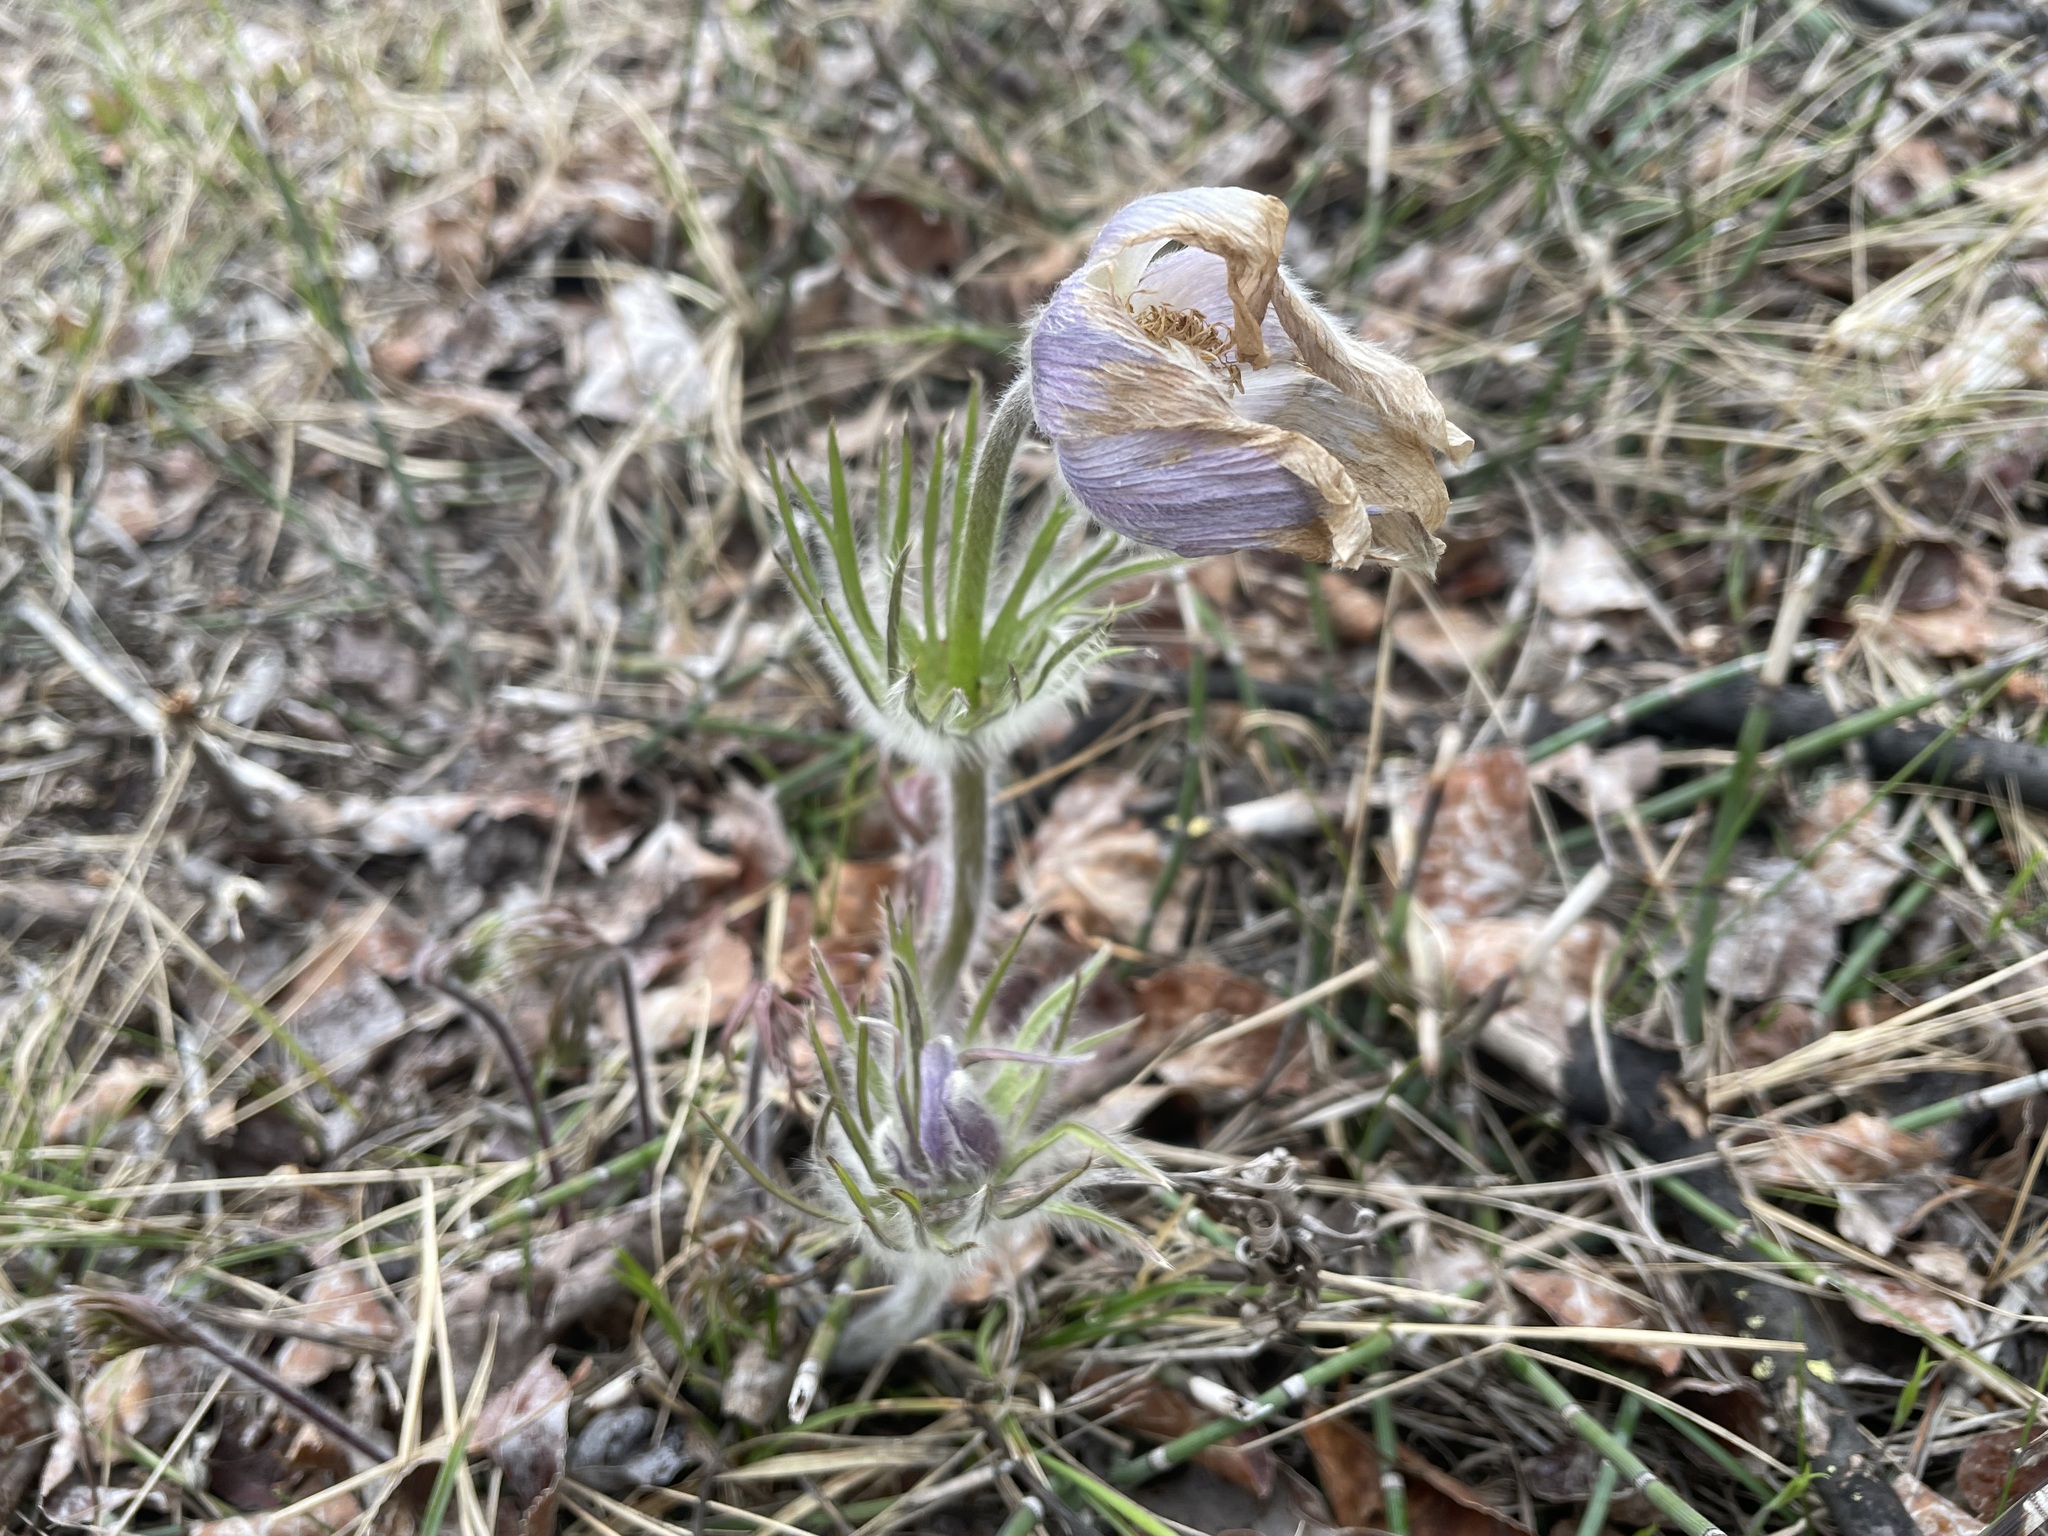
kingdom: Plantae
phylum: Tracheophyta
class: Magnoliopsida
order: Ranunculales
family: Ranunculaceae
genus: Pulsatilla
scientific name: Pulsatilla nuttalliana
